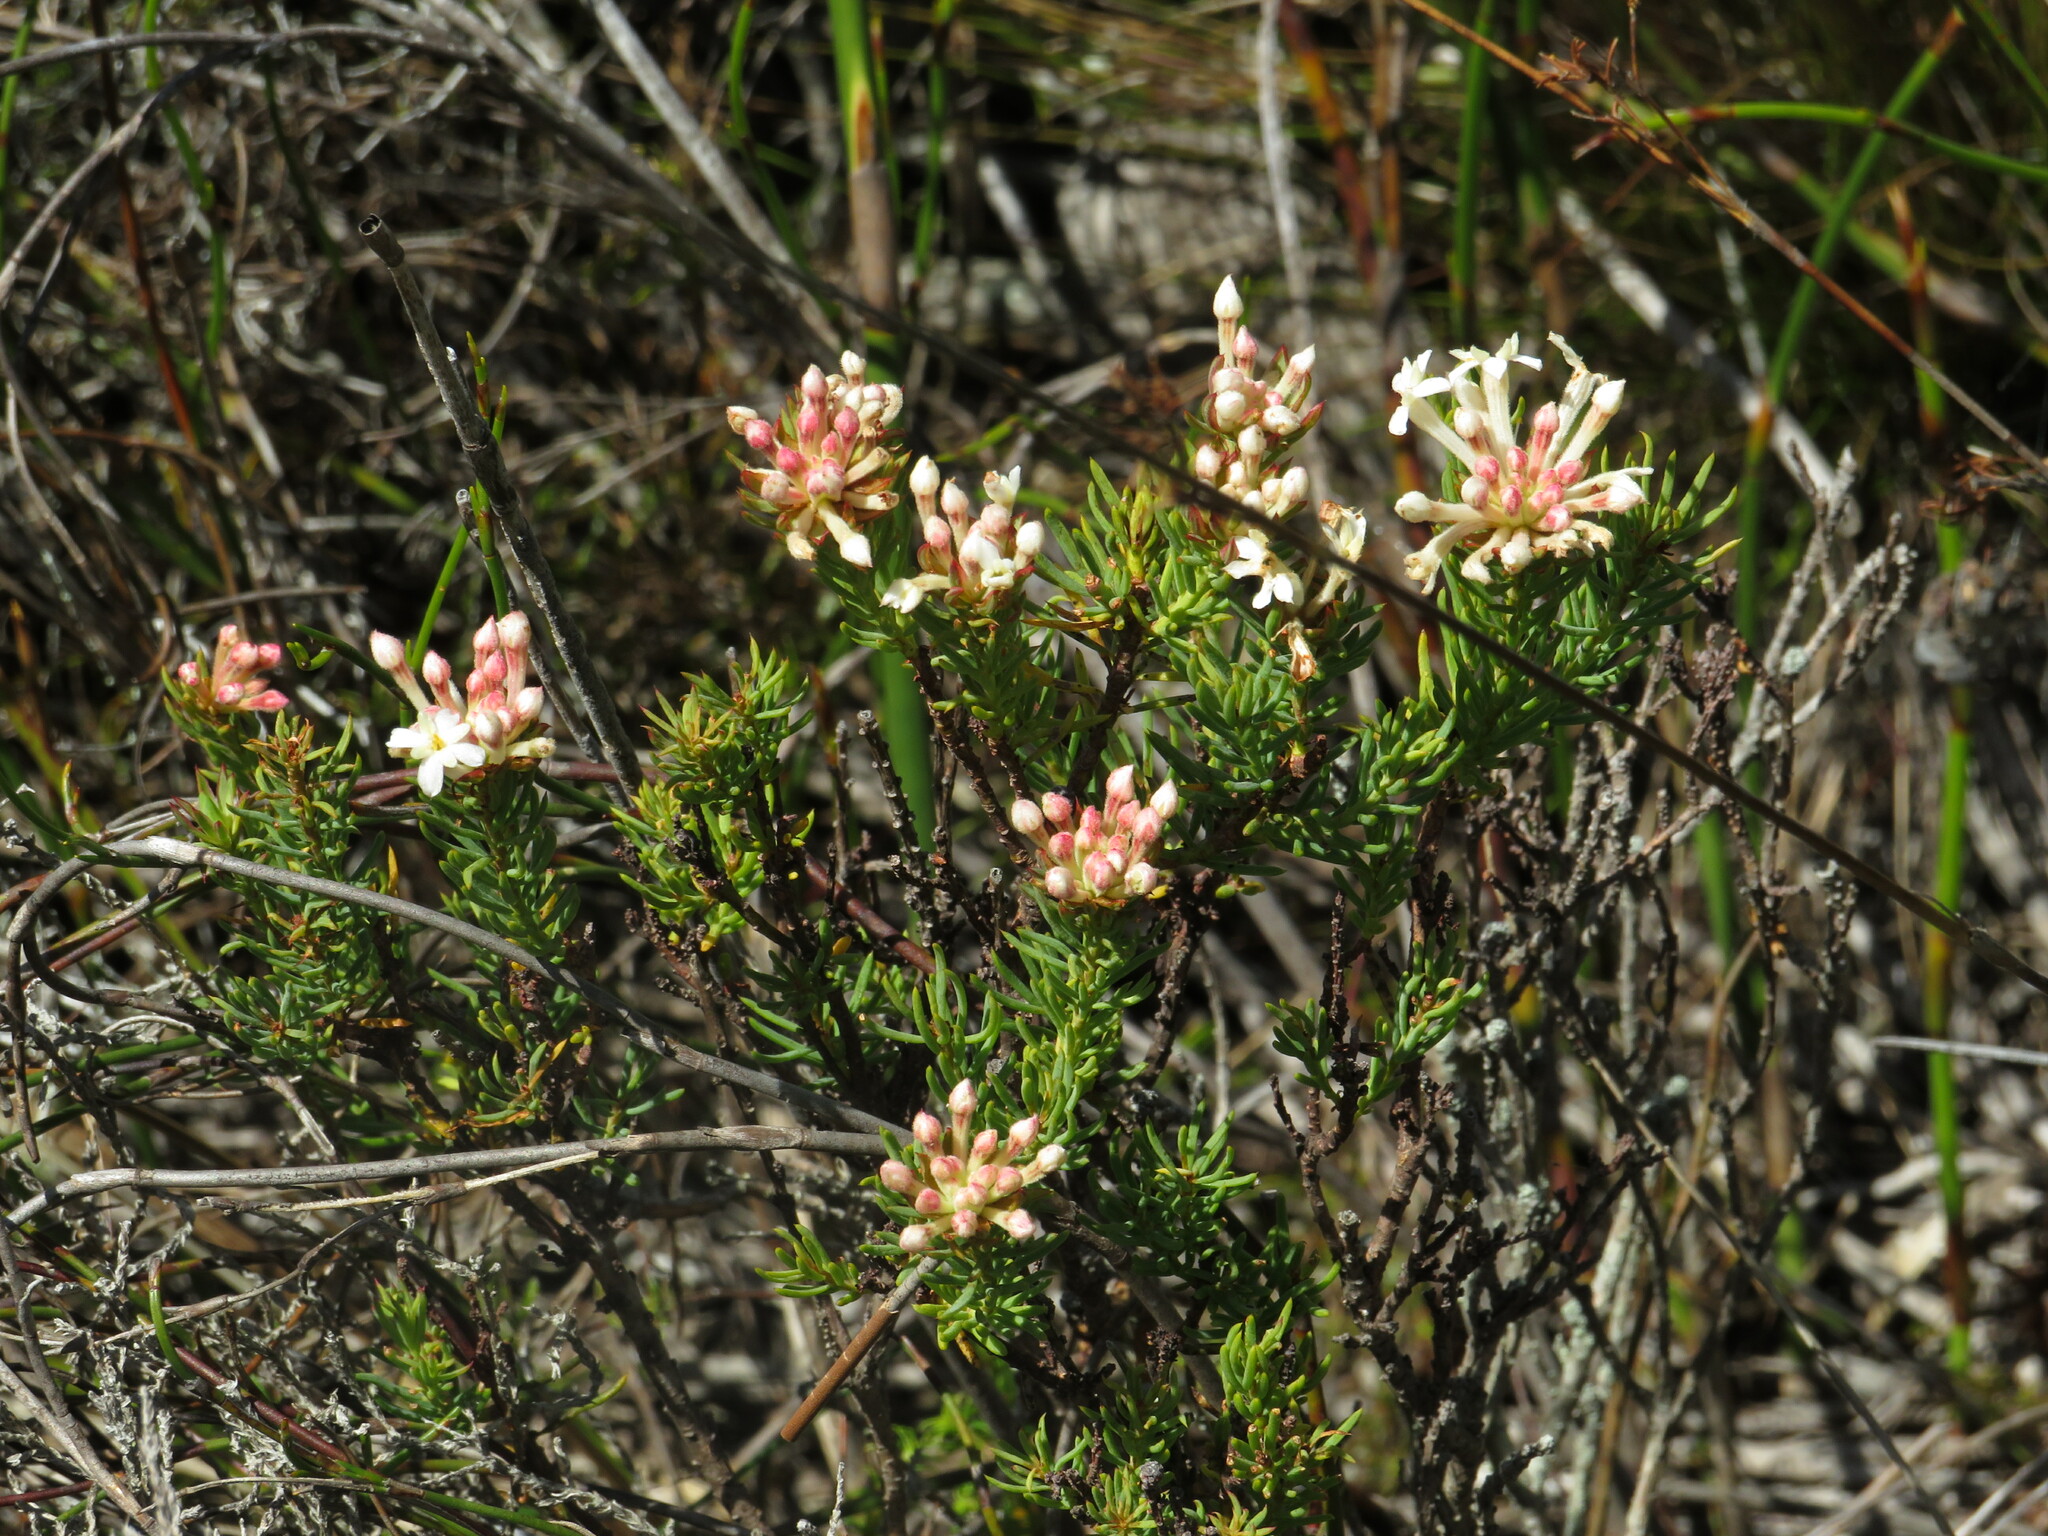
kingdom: Plantae
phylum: Tracheophyta
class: Magnoliopsida
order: Malvales
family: Thymelaeaceae
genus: Gnidia
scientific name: Gnidia pinifolia
